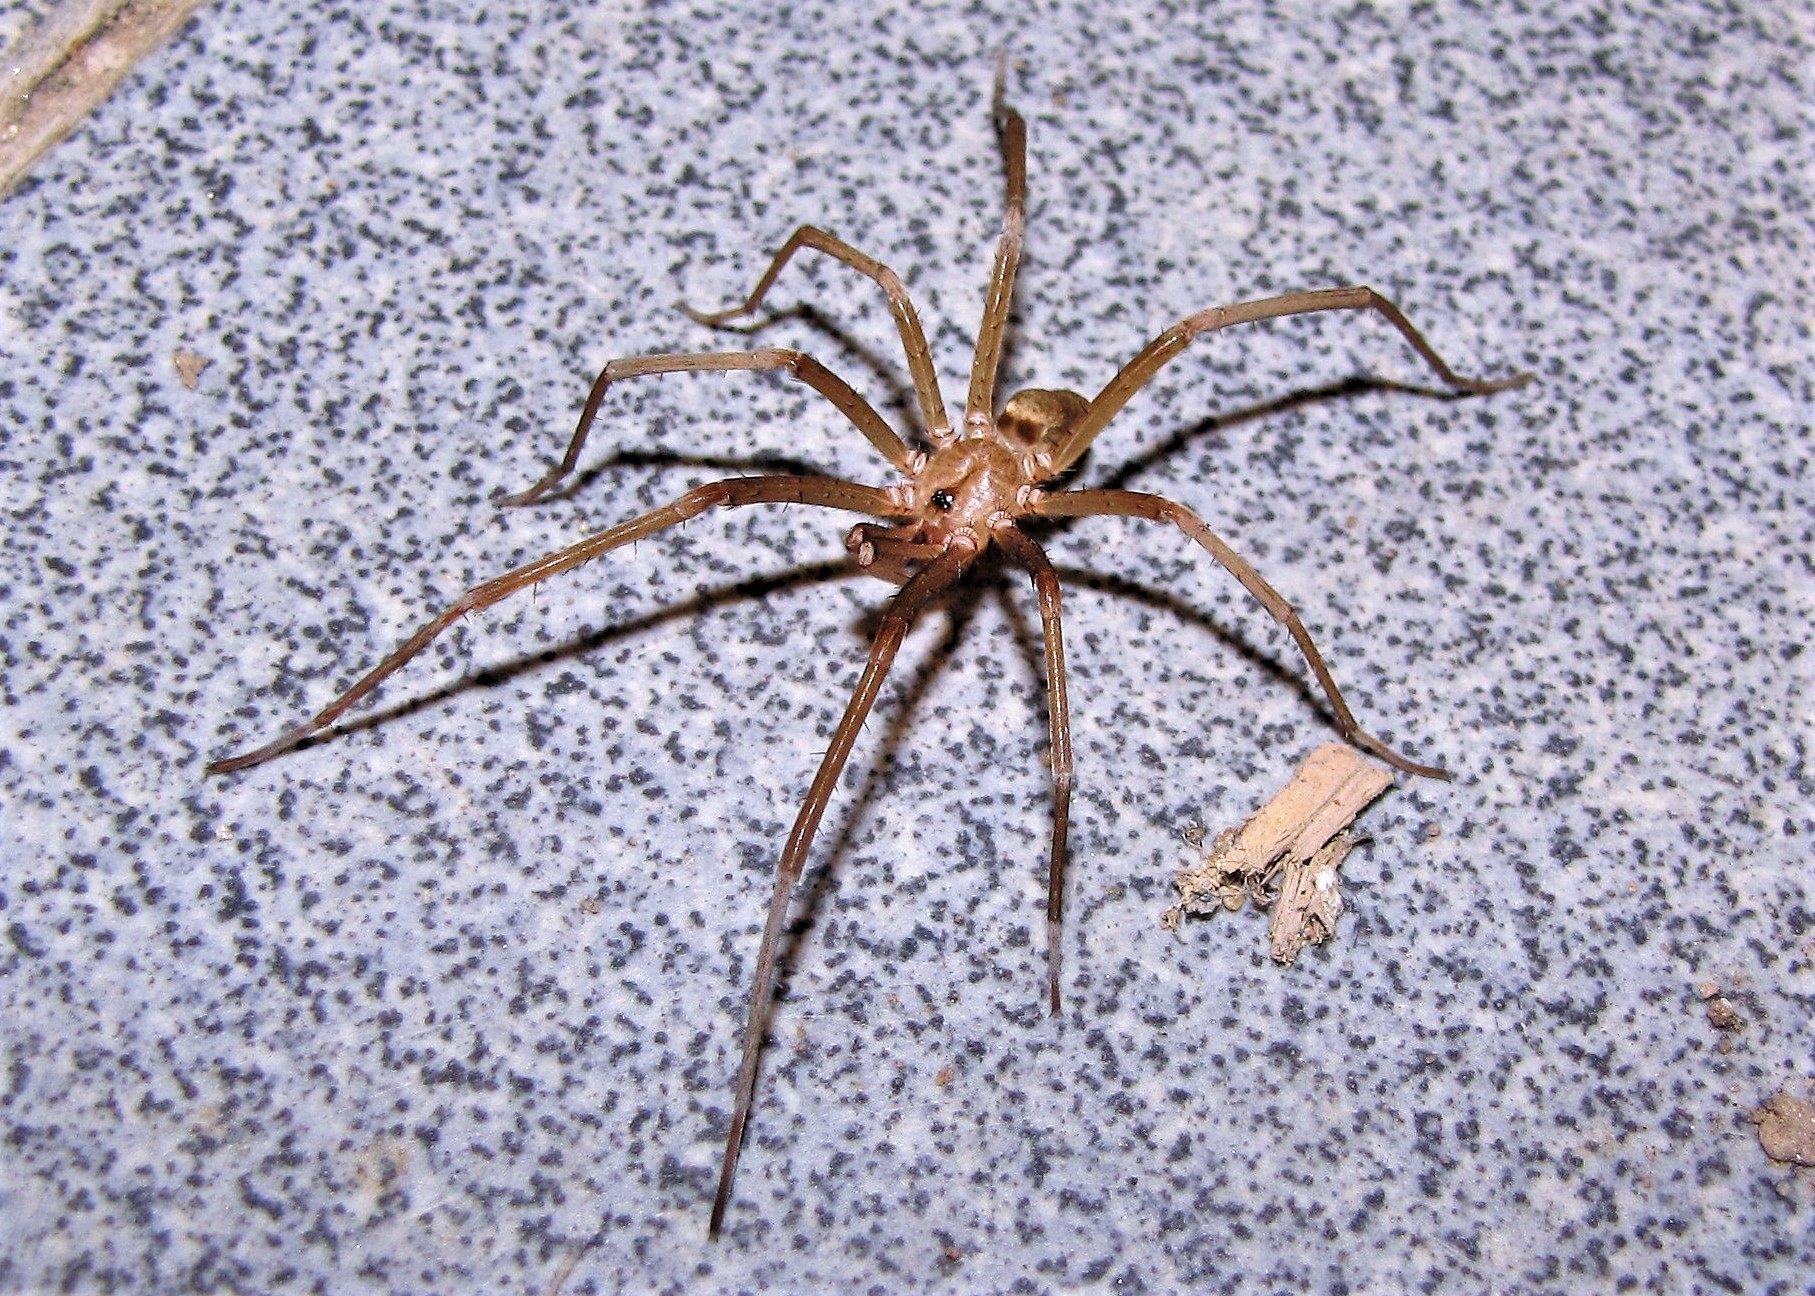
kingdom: Animalia
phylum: Arthropoda
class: Arachnida
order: Araneae
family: Filistatidae
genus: Kukulcania
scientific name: Kukulcania hibernalis
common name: Crevice weaver
